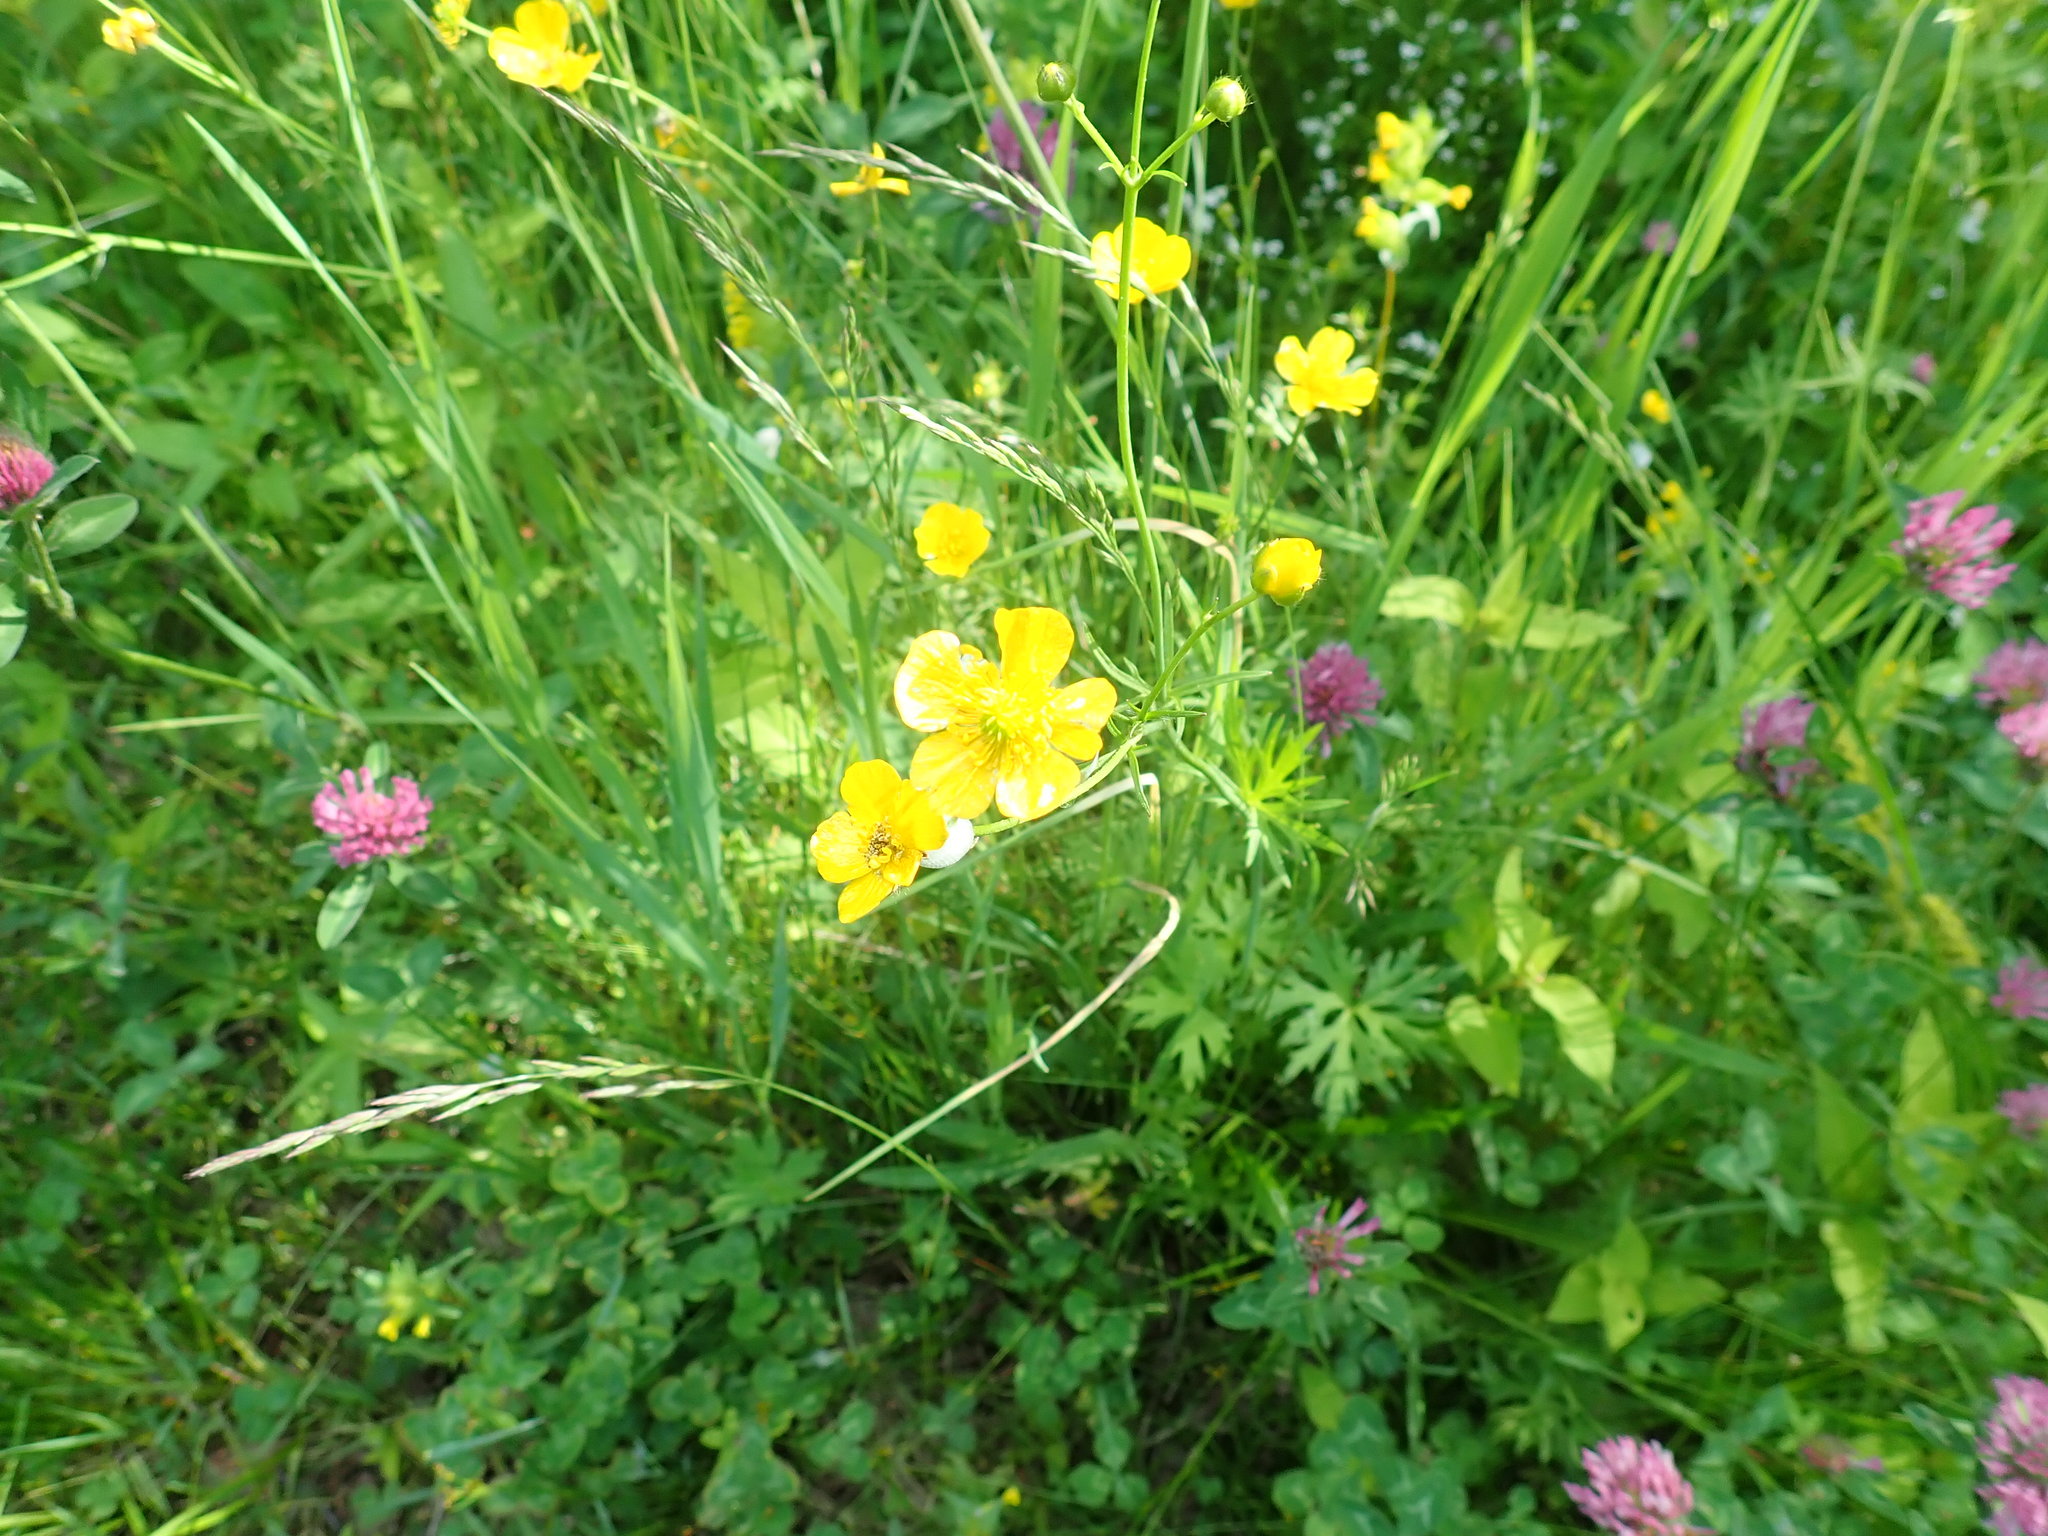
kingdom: Plantae
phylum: Tracheophyta
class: Magnoliopsida
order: Ranunculales
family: Ranunculaceae
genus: Ranunculus
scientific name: Ranunculus acris
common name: Meadow buttercup
